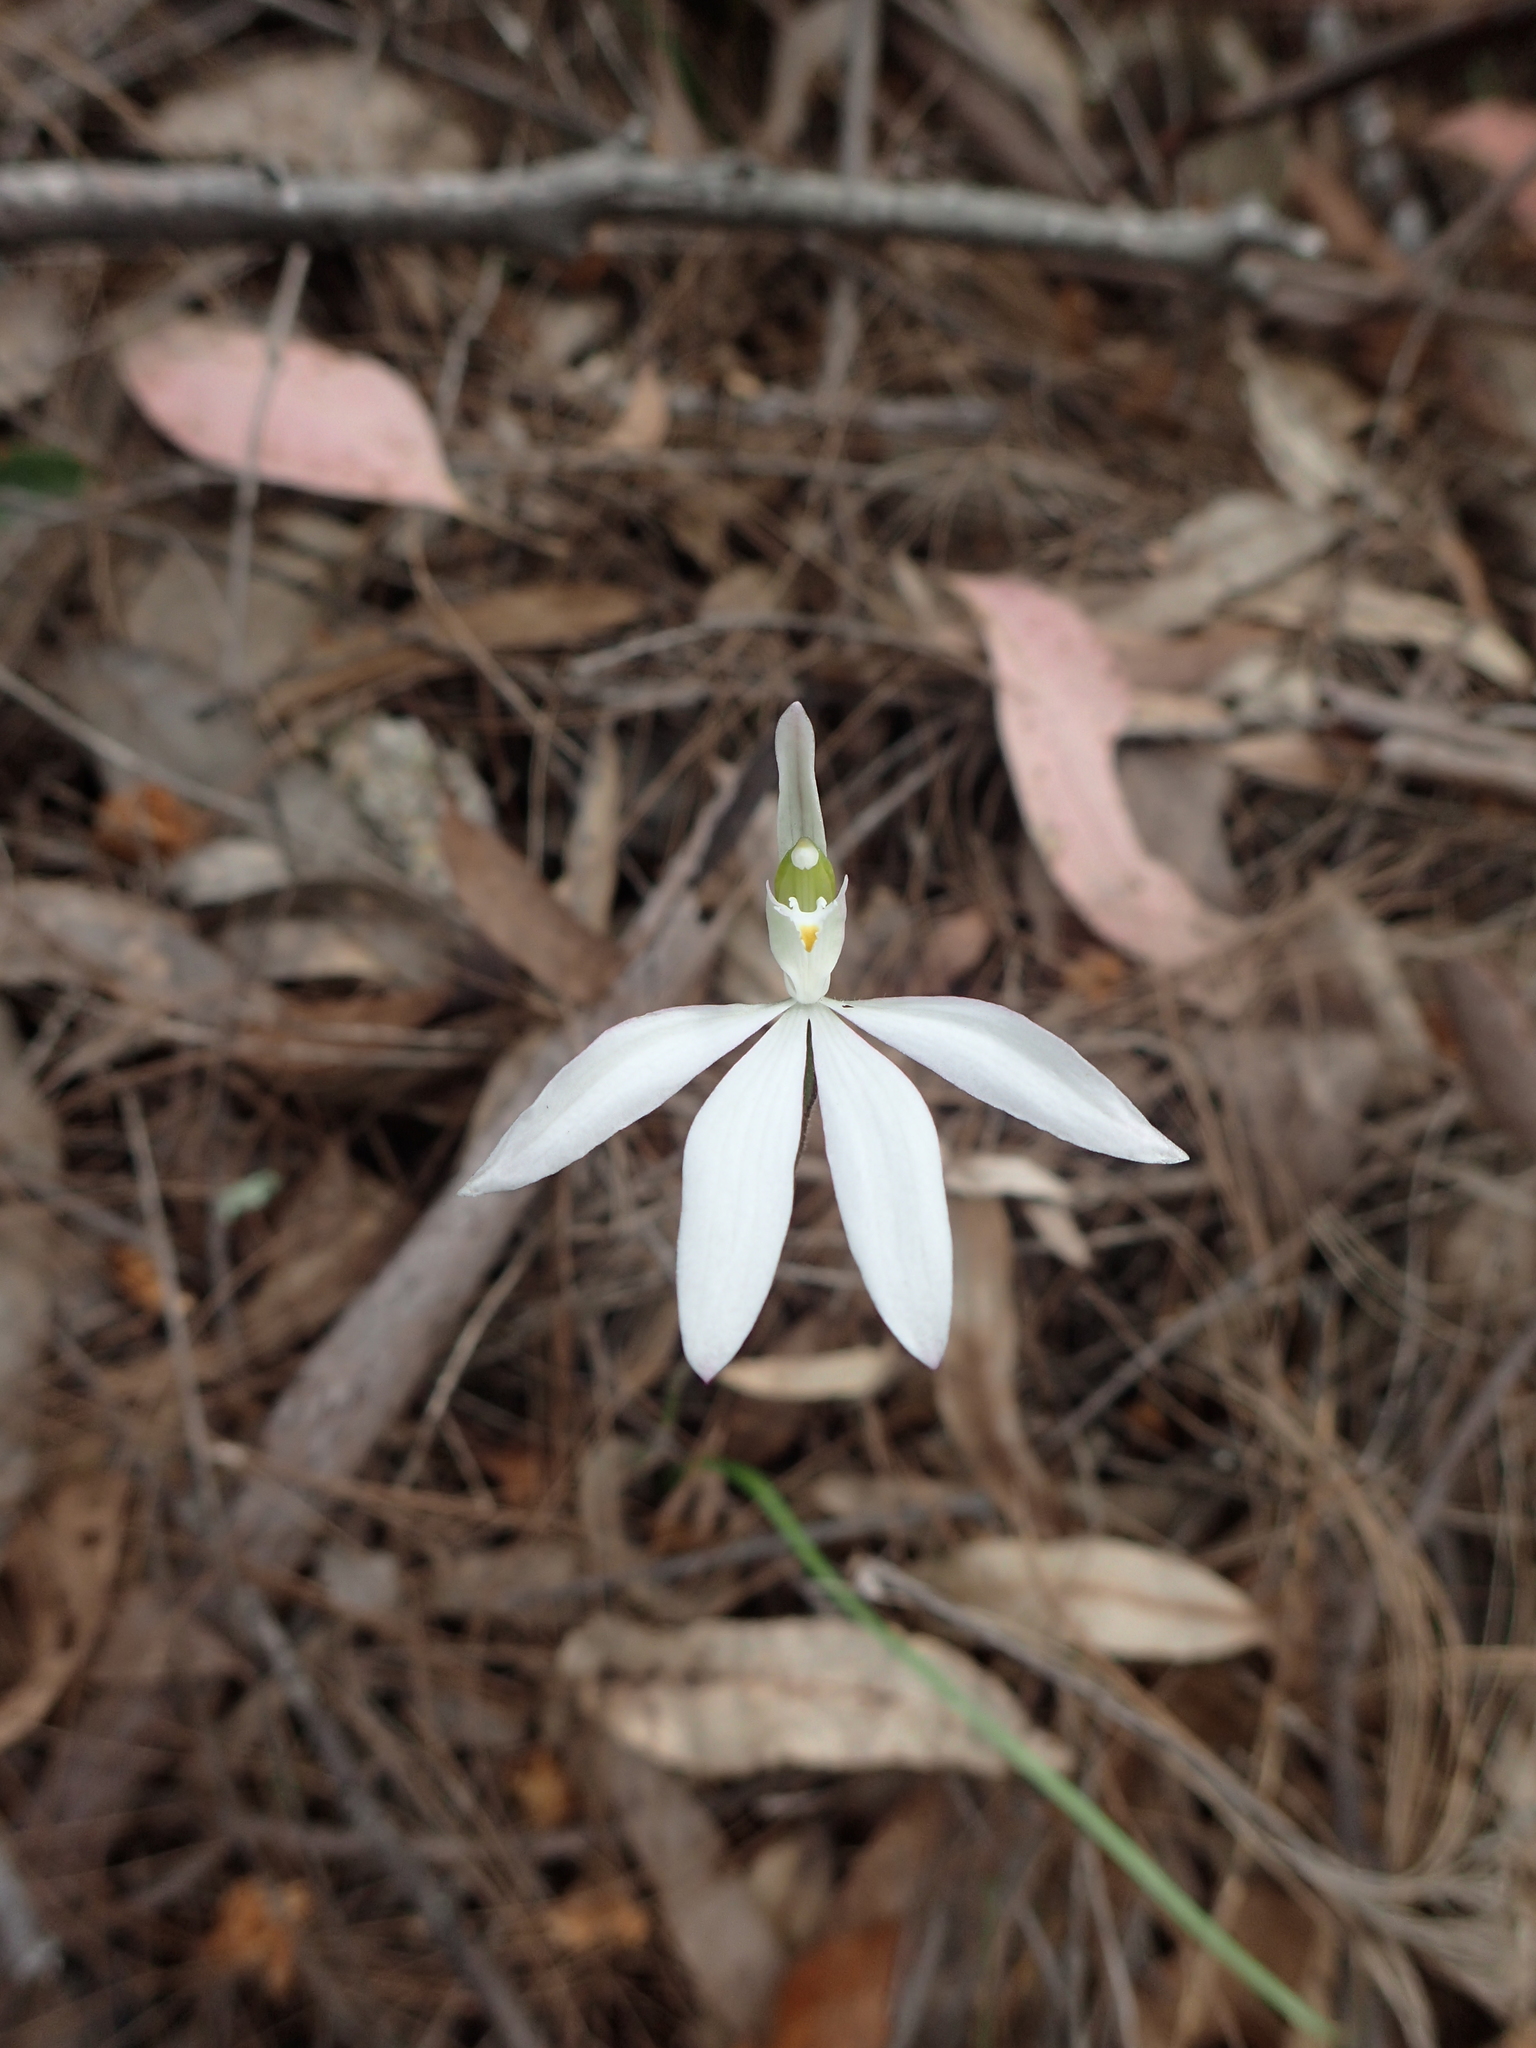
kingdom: Plantae
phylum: Tracheophyta
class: Liliopsida
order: Asparagales
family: Orchidaceae
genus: Caladenia
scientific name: Caladenia catenata
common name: White caladenia
